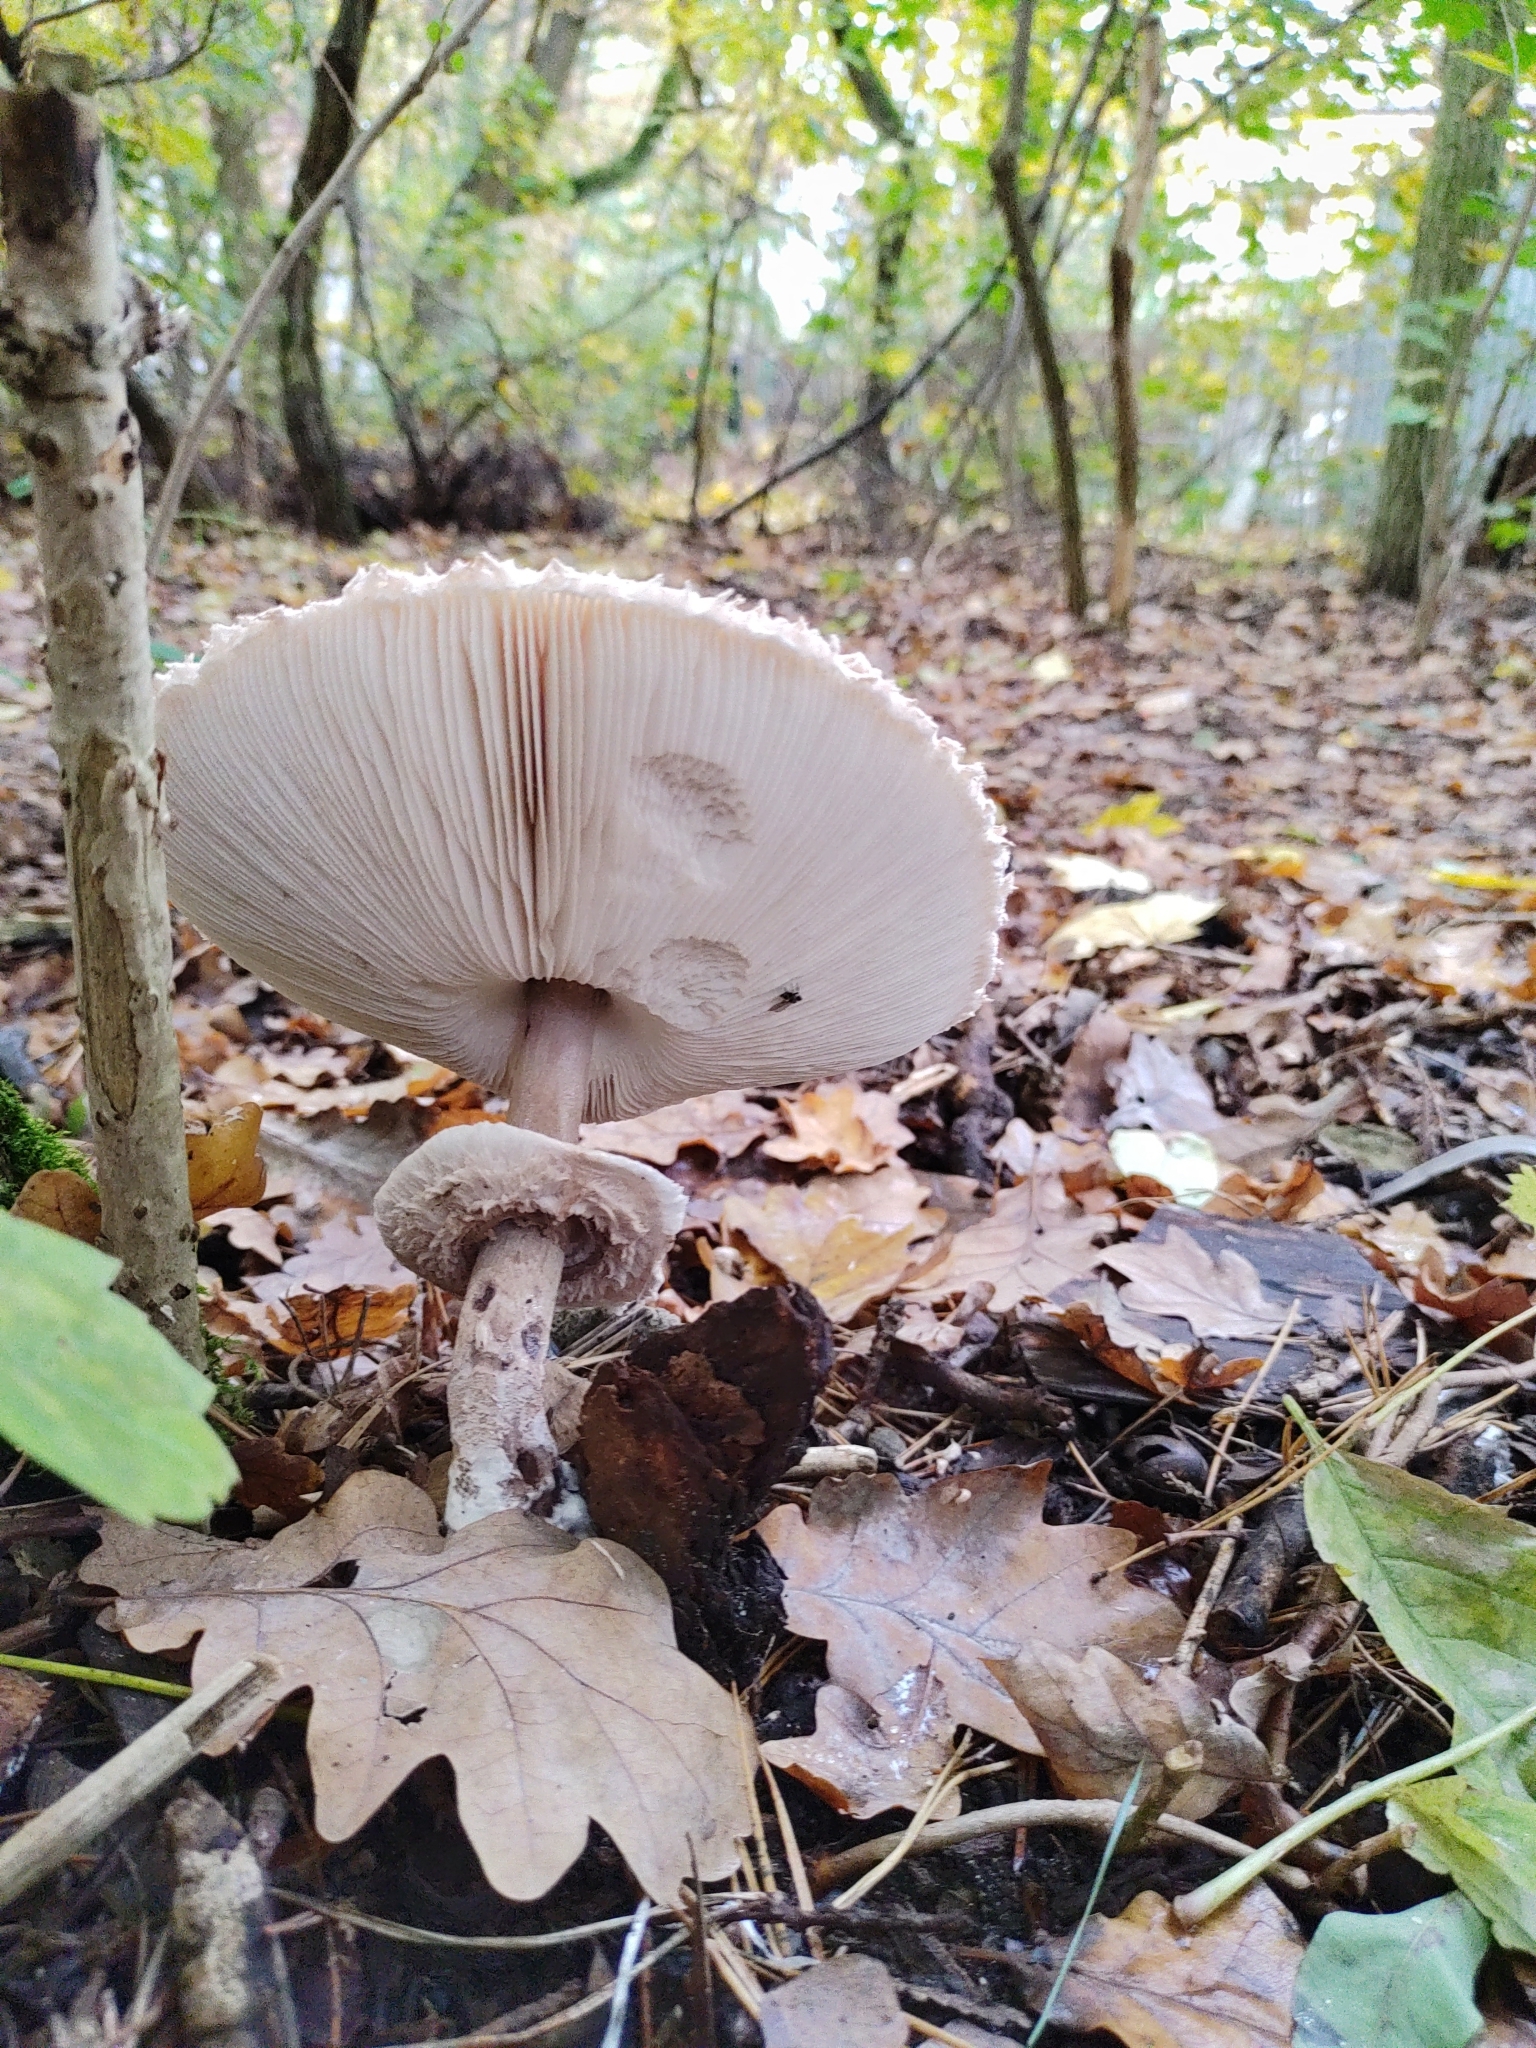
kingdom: Fungi
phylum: Basidiomycota
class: Agaricomycetes
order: Agaricales
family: Agaricaceae
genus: Macrolepiota
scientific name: Macrolepiota procera
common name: Parasol
